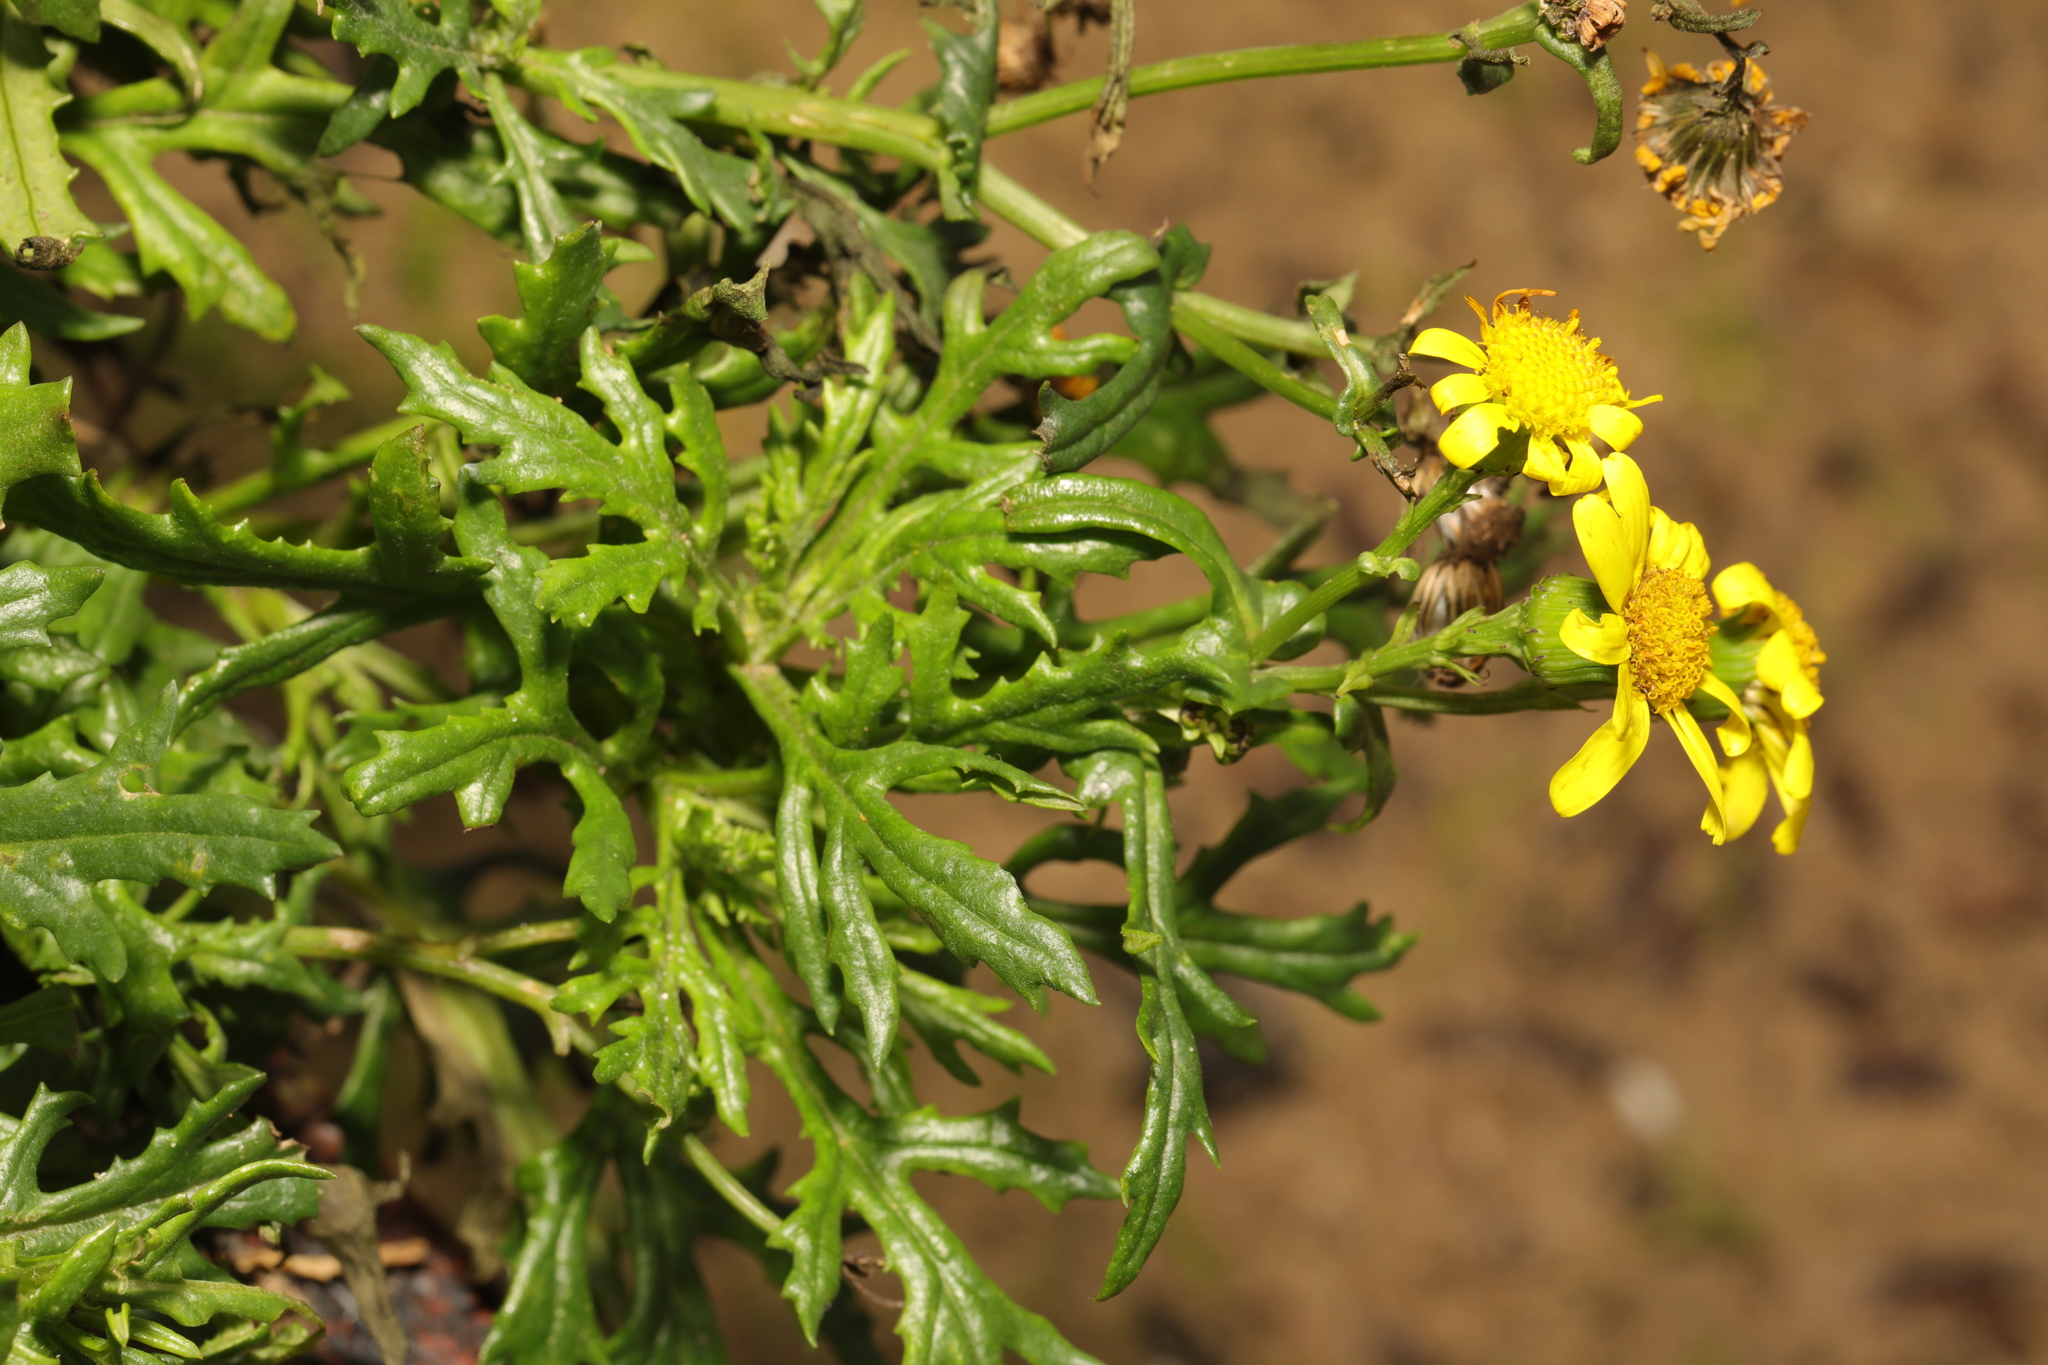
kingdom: Plantae
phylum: Tracheophyta
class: Magnoliopsida
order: Asterales
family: Asteraceae
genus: Senecio
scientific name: Senecio squalidus
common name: Oxford ragwort
